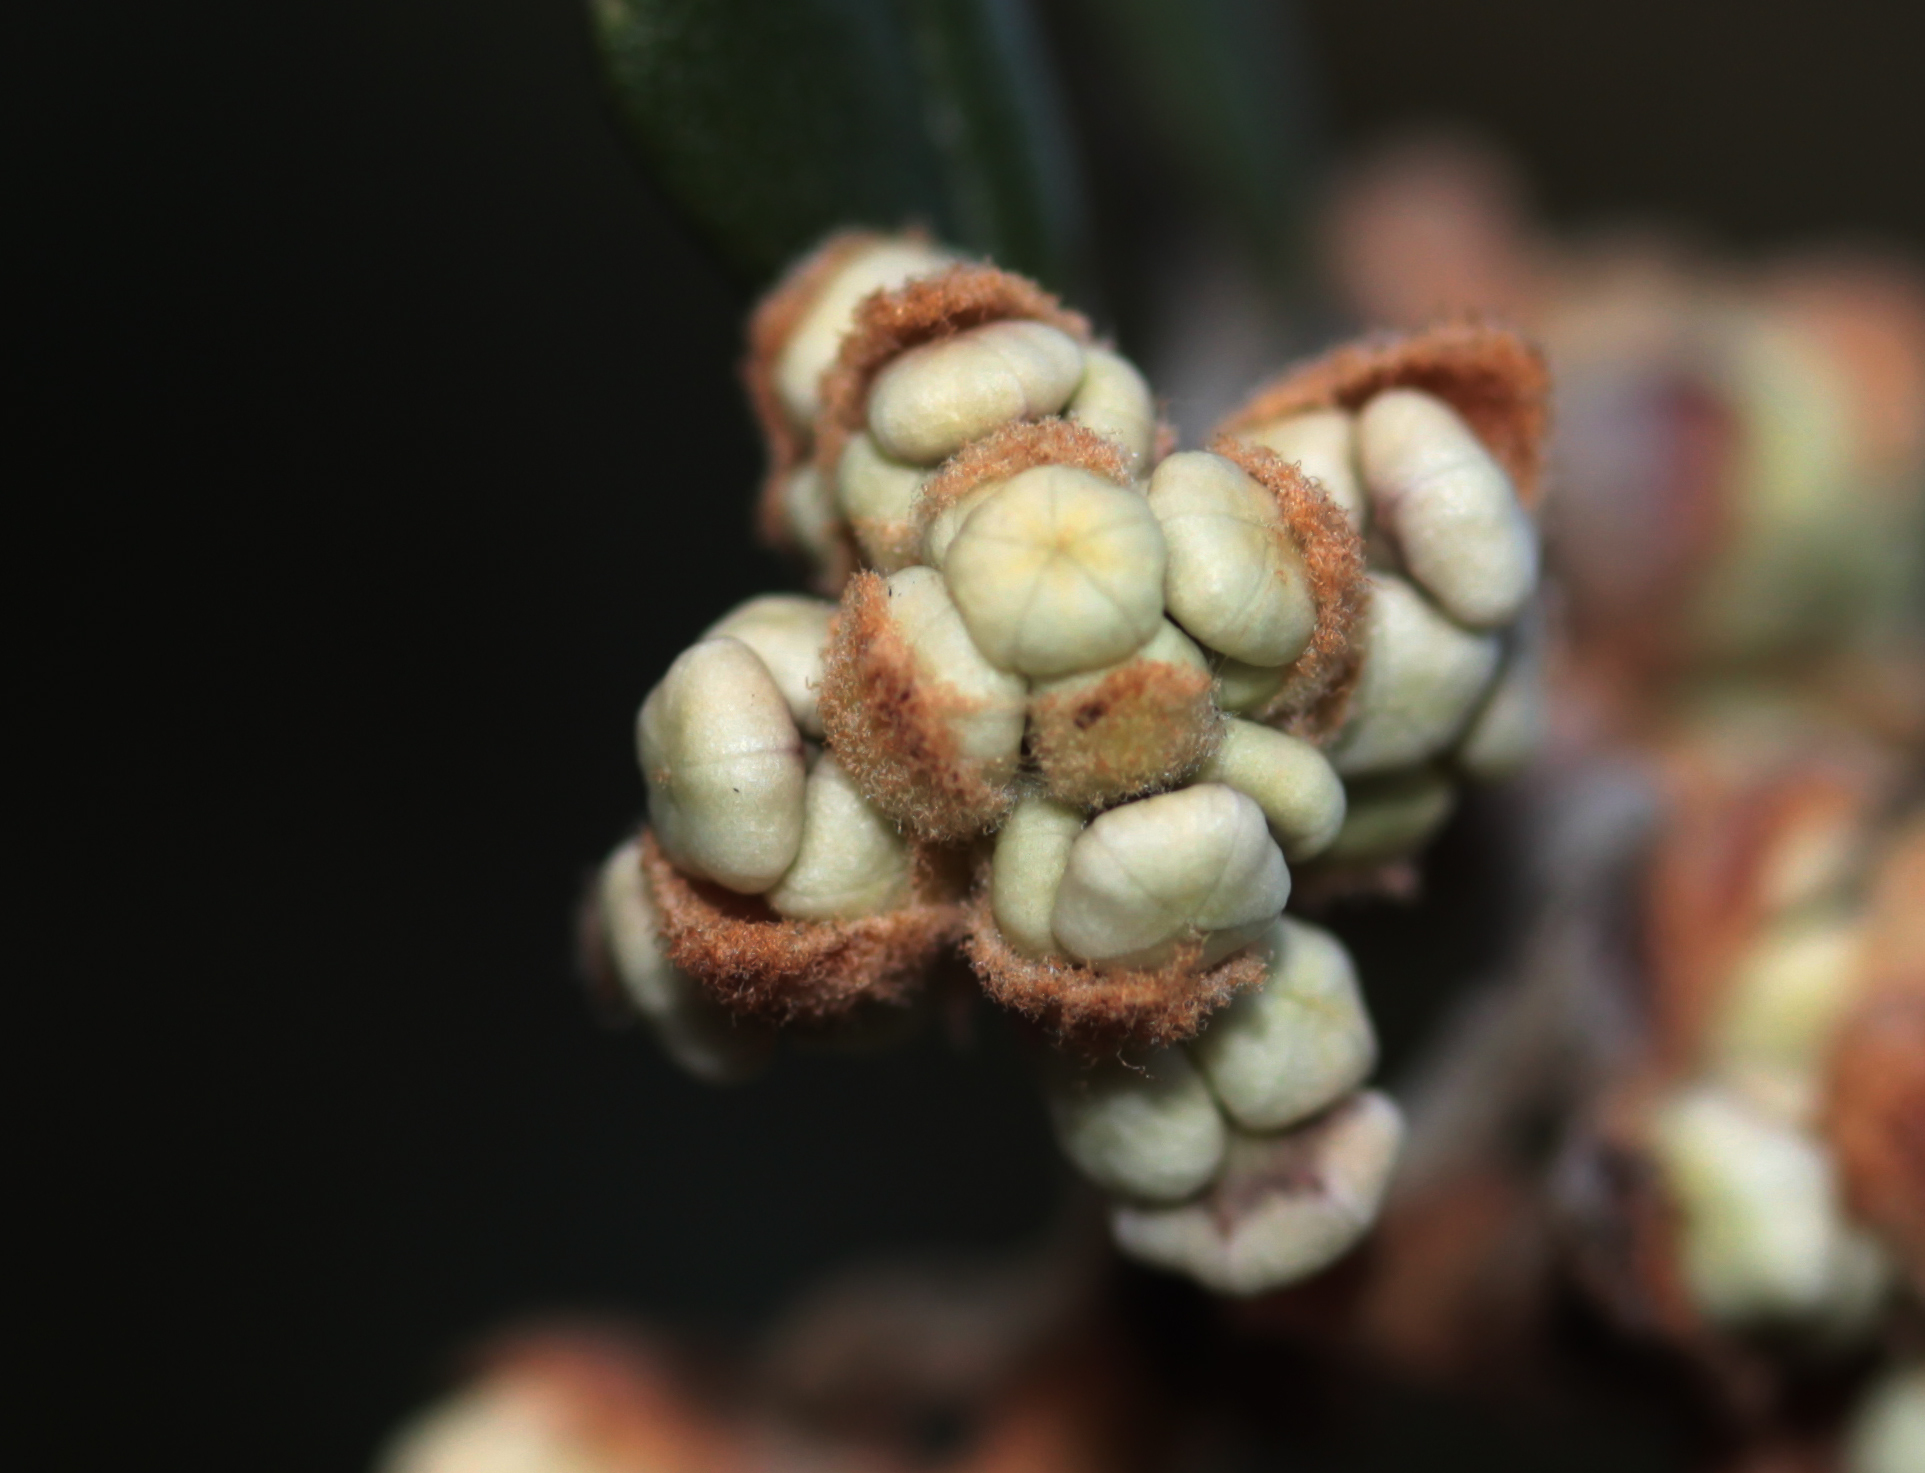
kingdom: Plantae
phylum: Tracheophyta
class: Magnoliopsida
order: Rosales
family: Rhamnaceae
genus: Ceanothus
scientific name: Ceanothus crassifolius
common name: Hoaryleaf ceanothus
